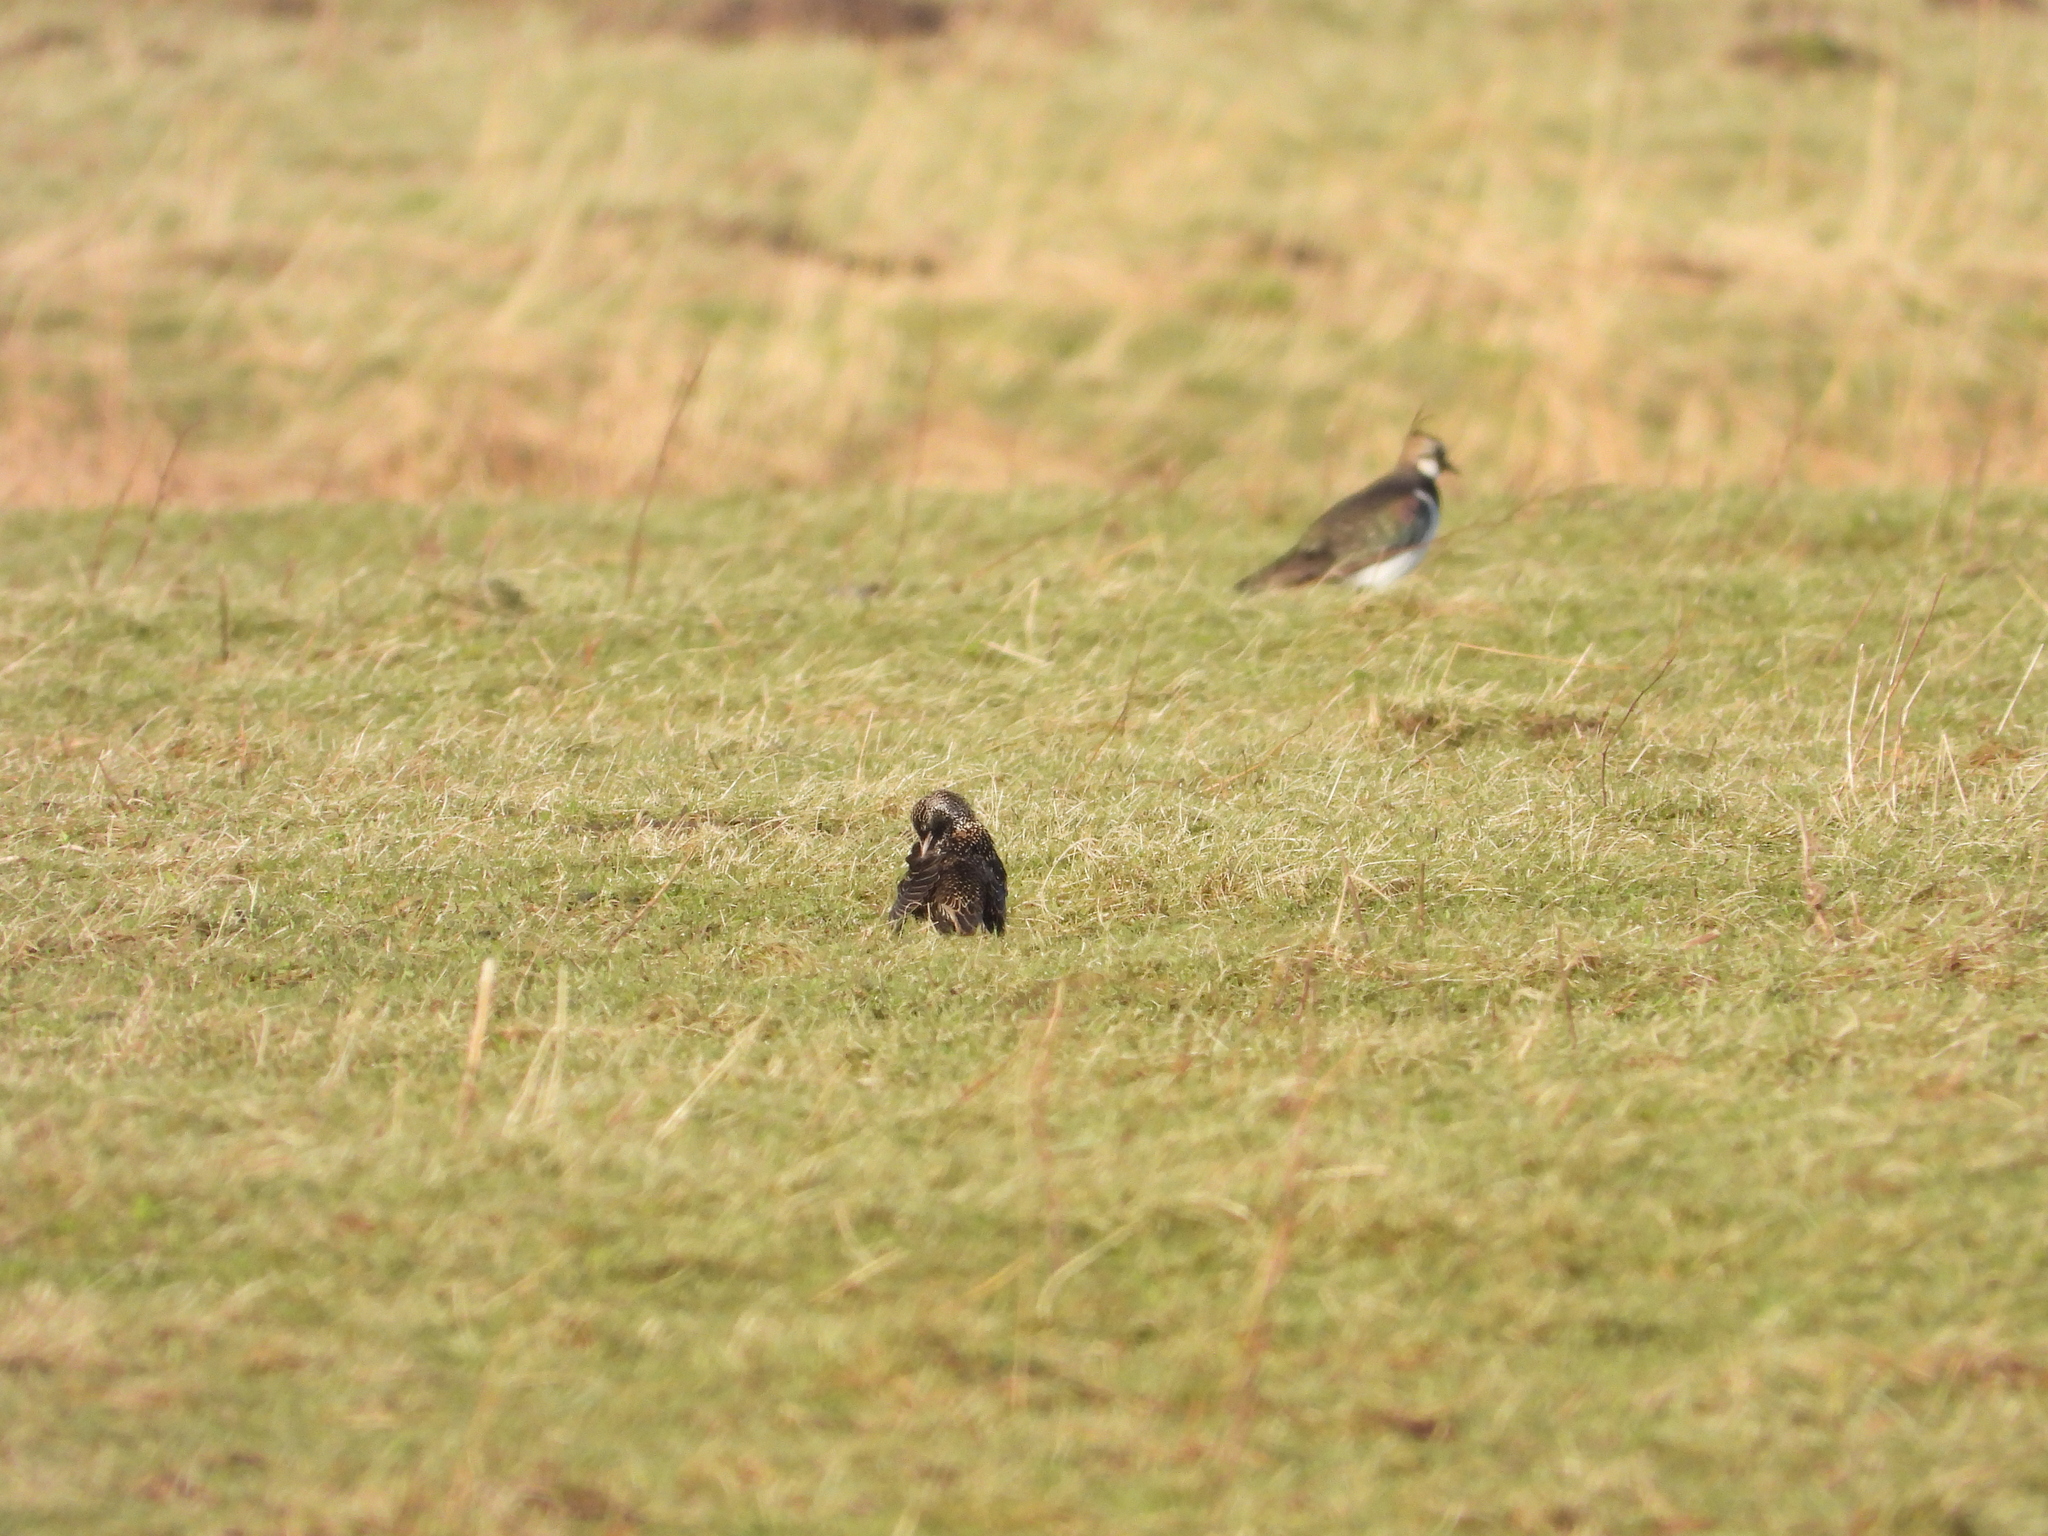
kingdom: Animalia
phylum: Chordata
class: Aves
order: Passeriformes
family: Sturnidae
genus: Sturnus
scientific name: Sturnus vulgaris
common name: Common starling
